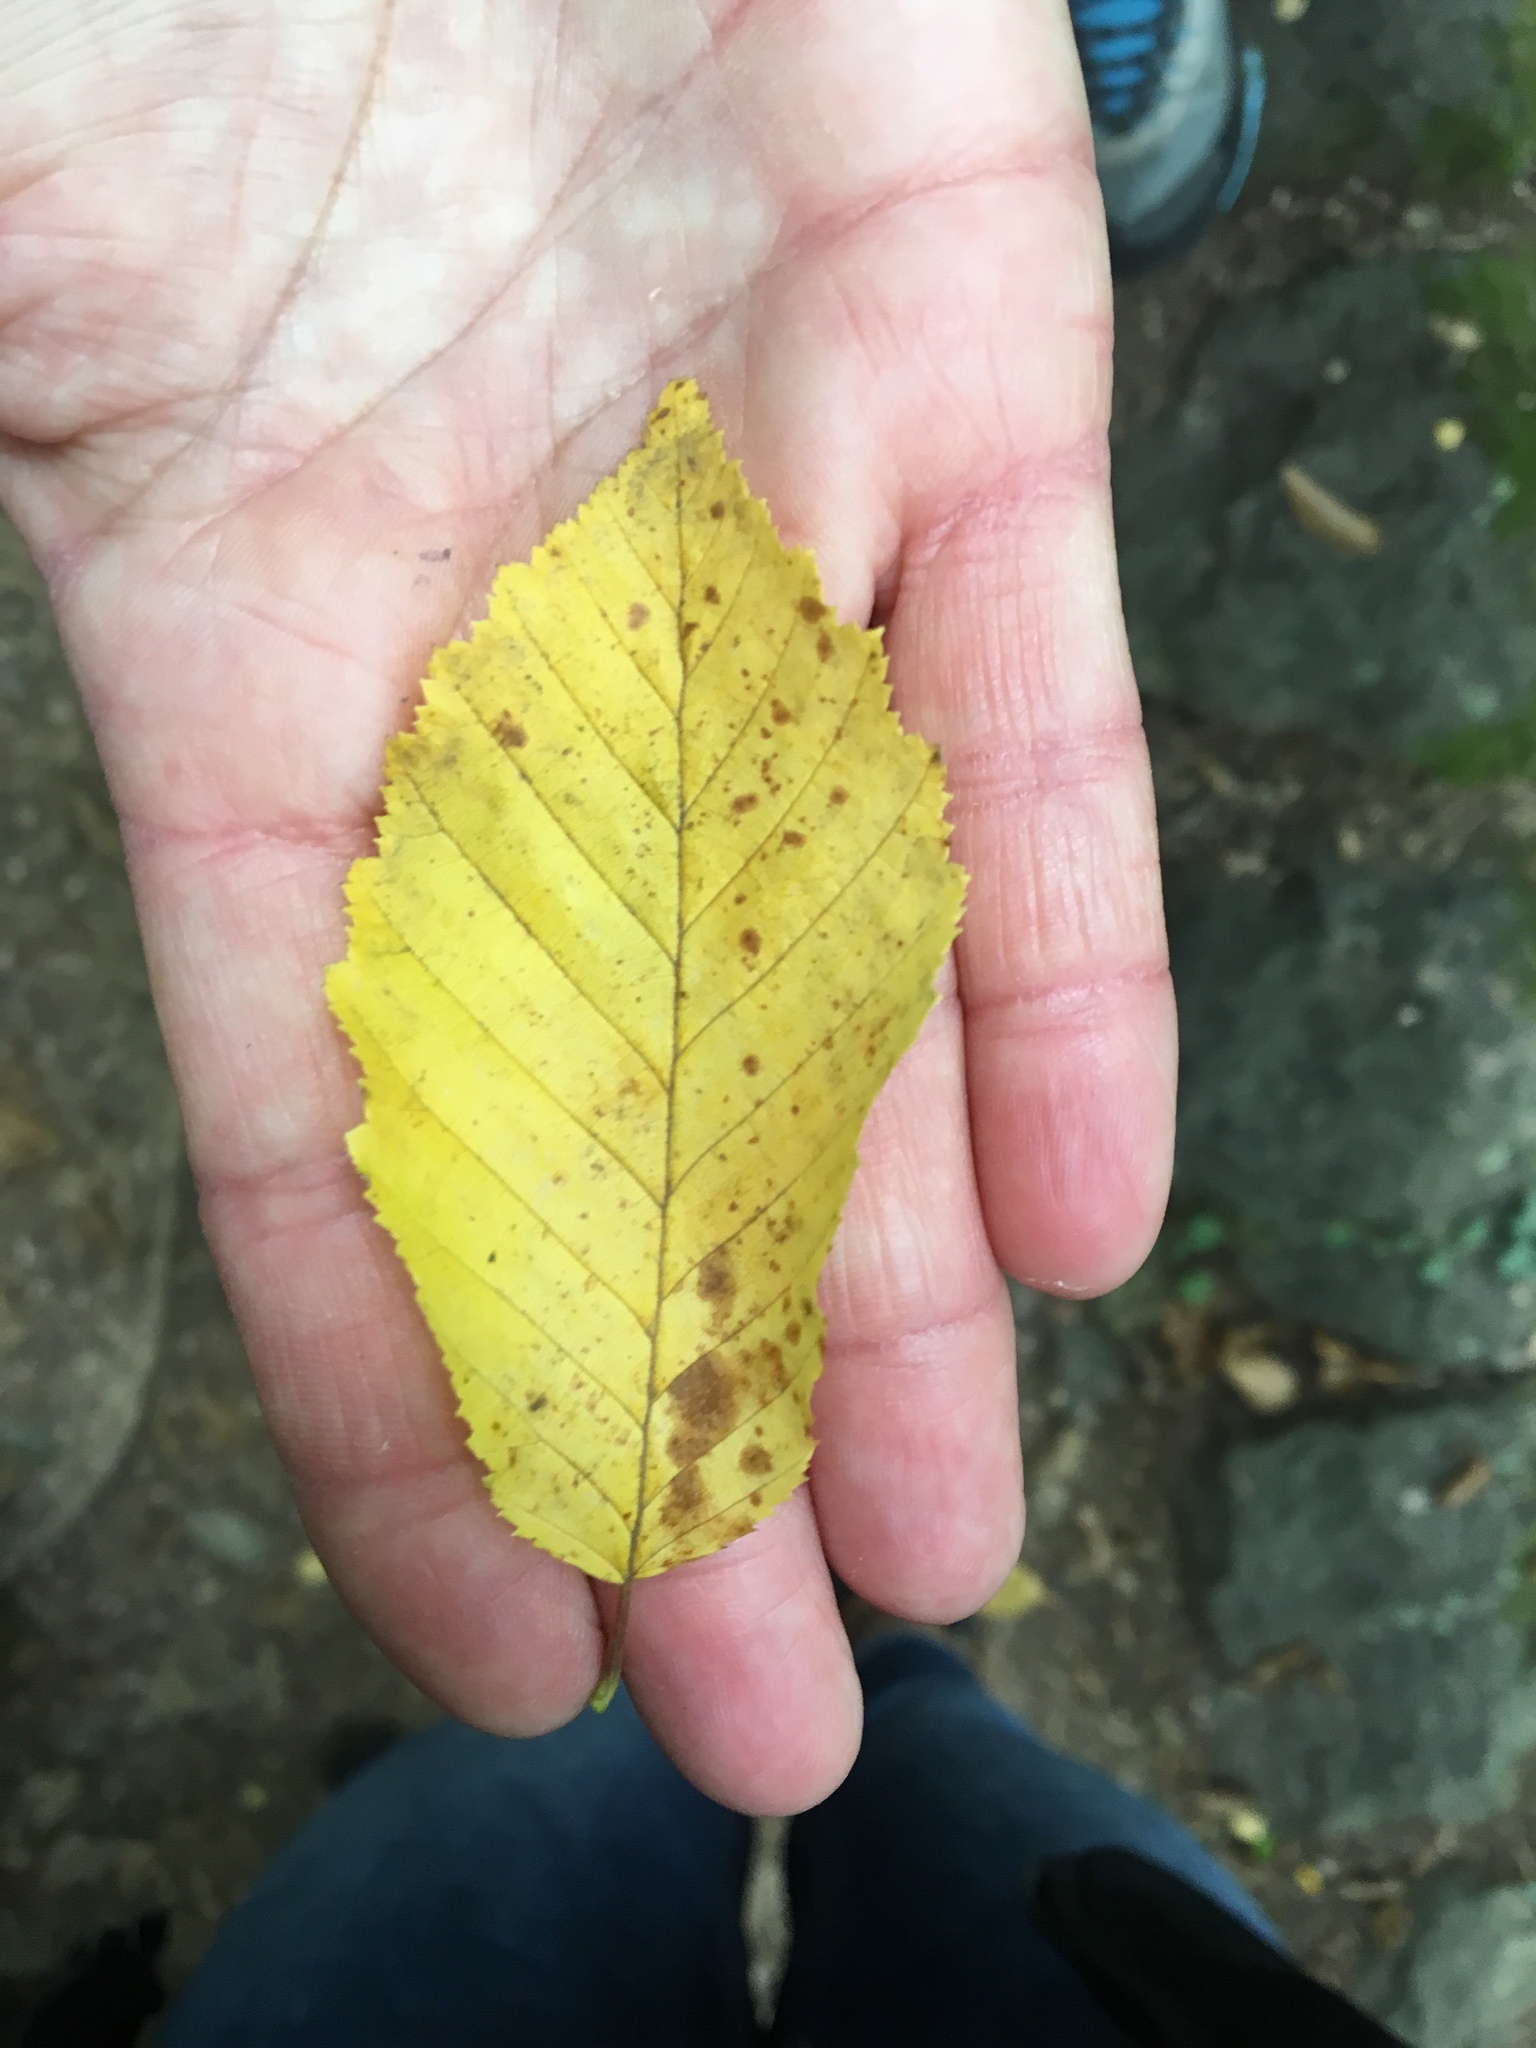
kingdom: Plantae
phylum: Tracheophyta
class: Magnoliopsida
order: Fagales
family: Betulaceae
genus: Carpinus
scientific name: Carpinus betulus
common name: Hornbeam
